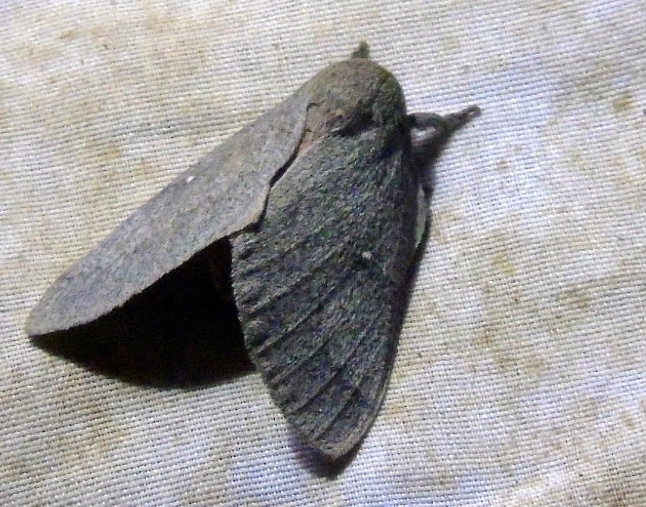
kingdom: Animalia
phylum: Arthropoda
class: Insecta
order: Lepidoptera
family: Saturniidae
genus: Syssphinx
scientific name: Syssphinx hubbardi
